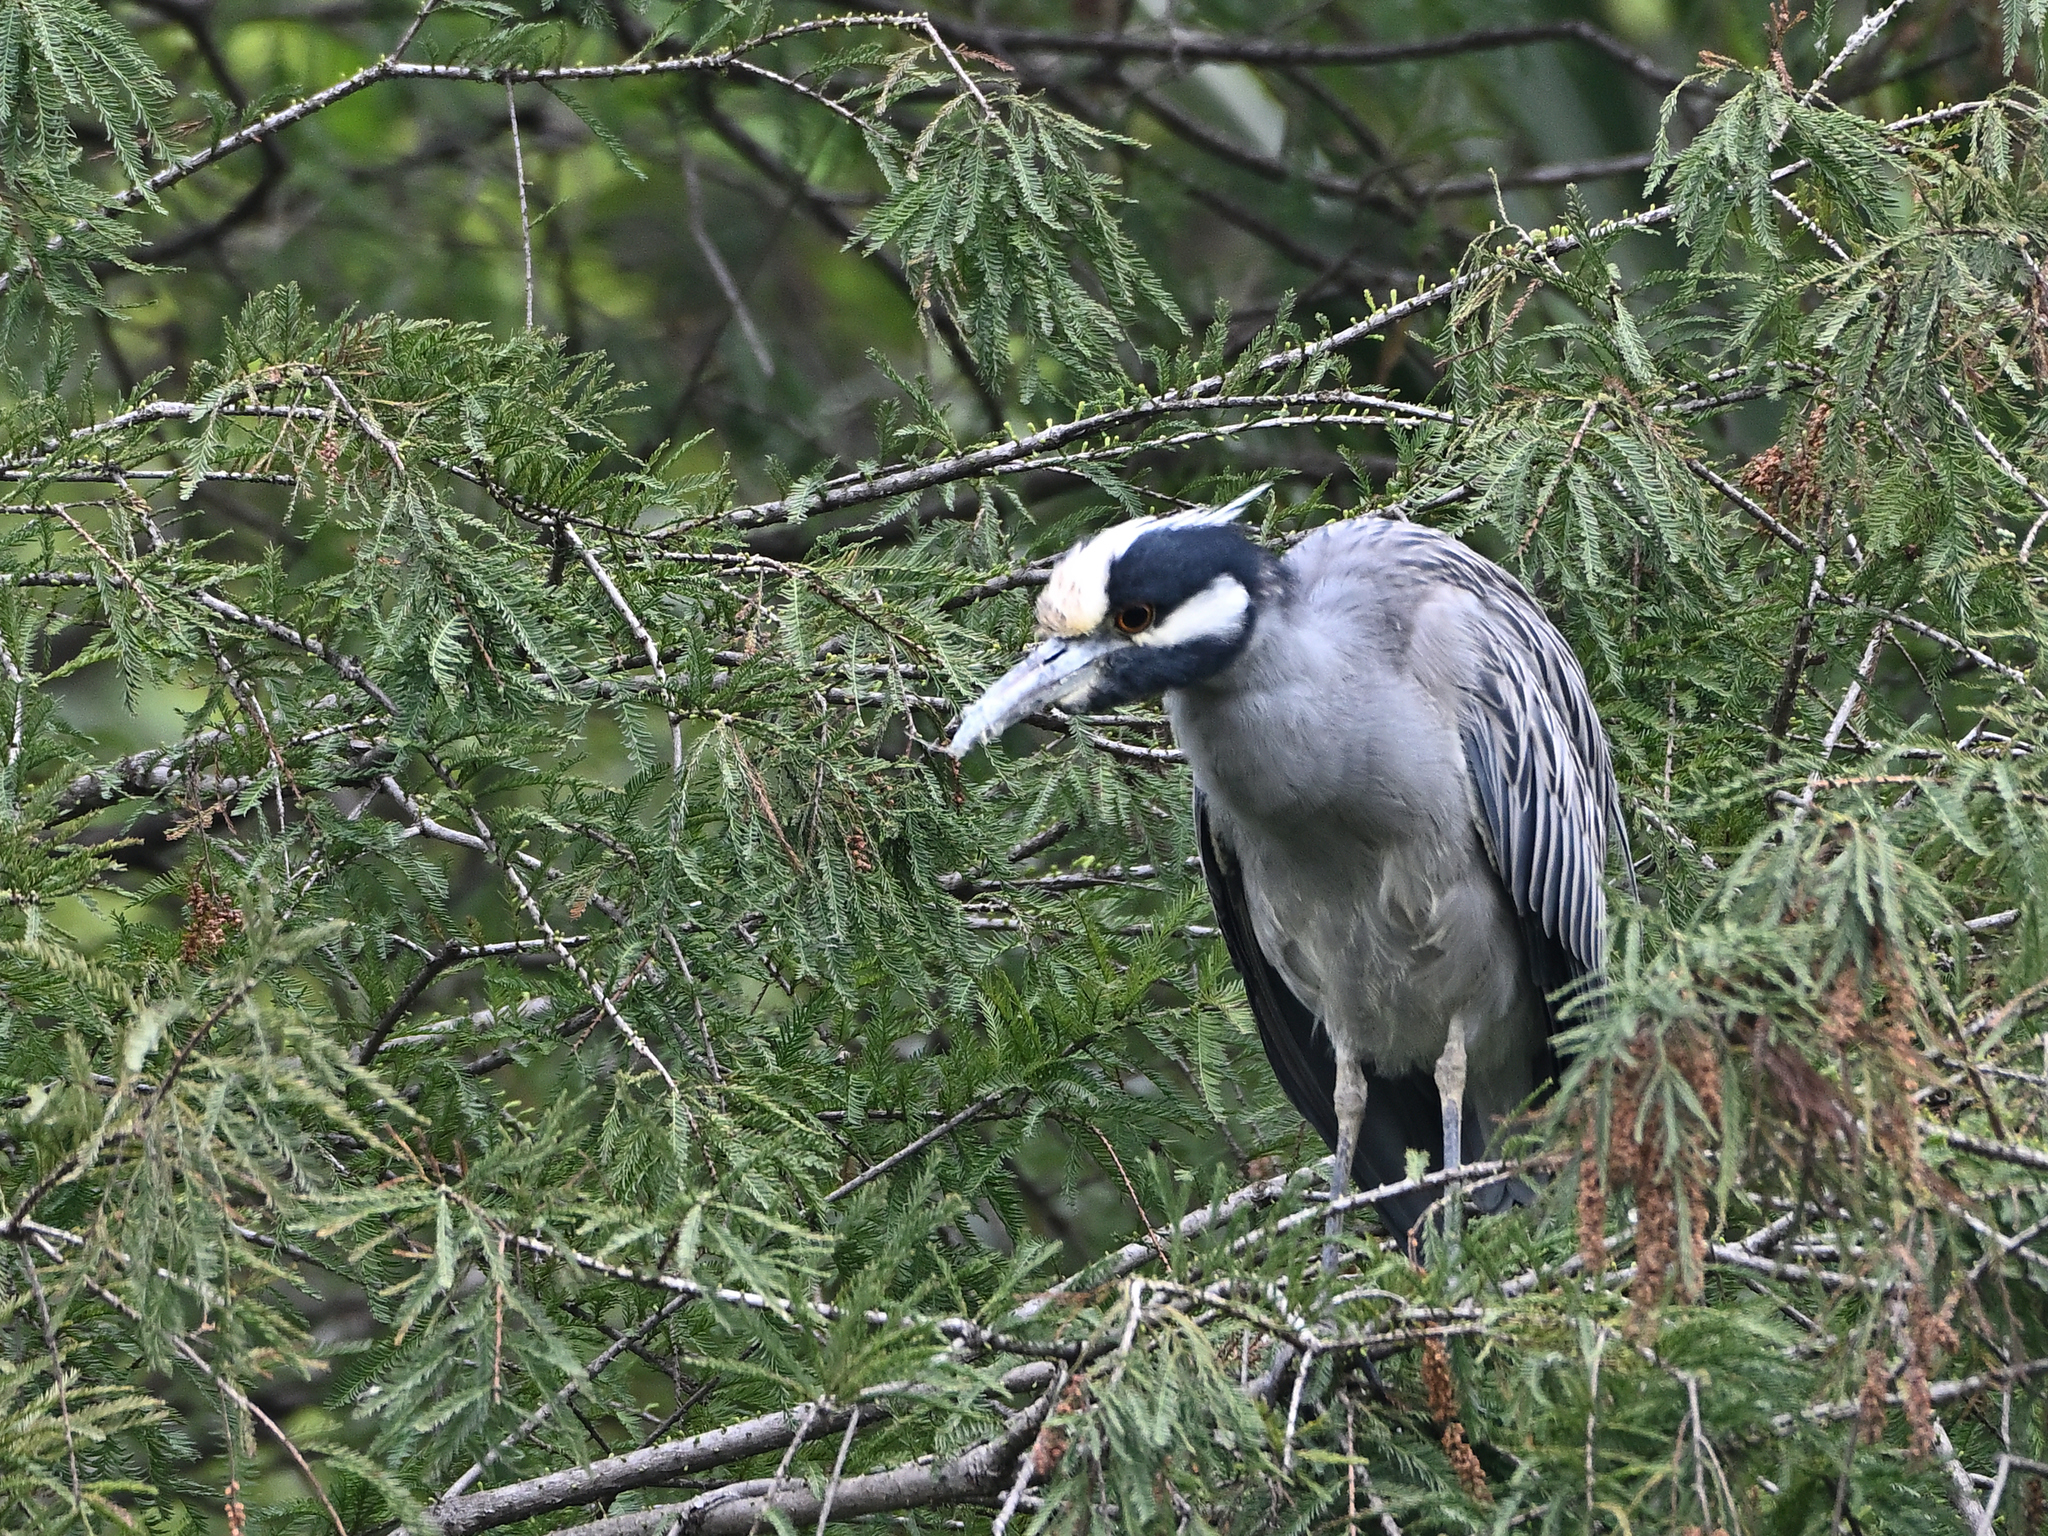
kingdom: Animalia
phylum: Chordata
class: Aves
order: Pelecaniformes
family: Ardeidae
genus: Nyctanassa
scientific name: Nyctanassa violacea
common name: Yellow-crowned night heron
